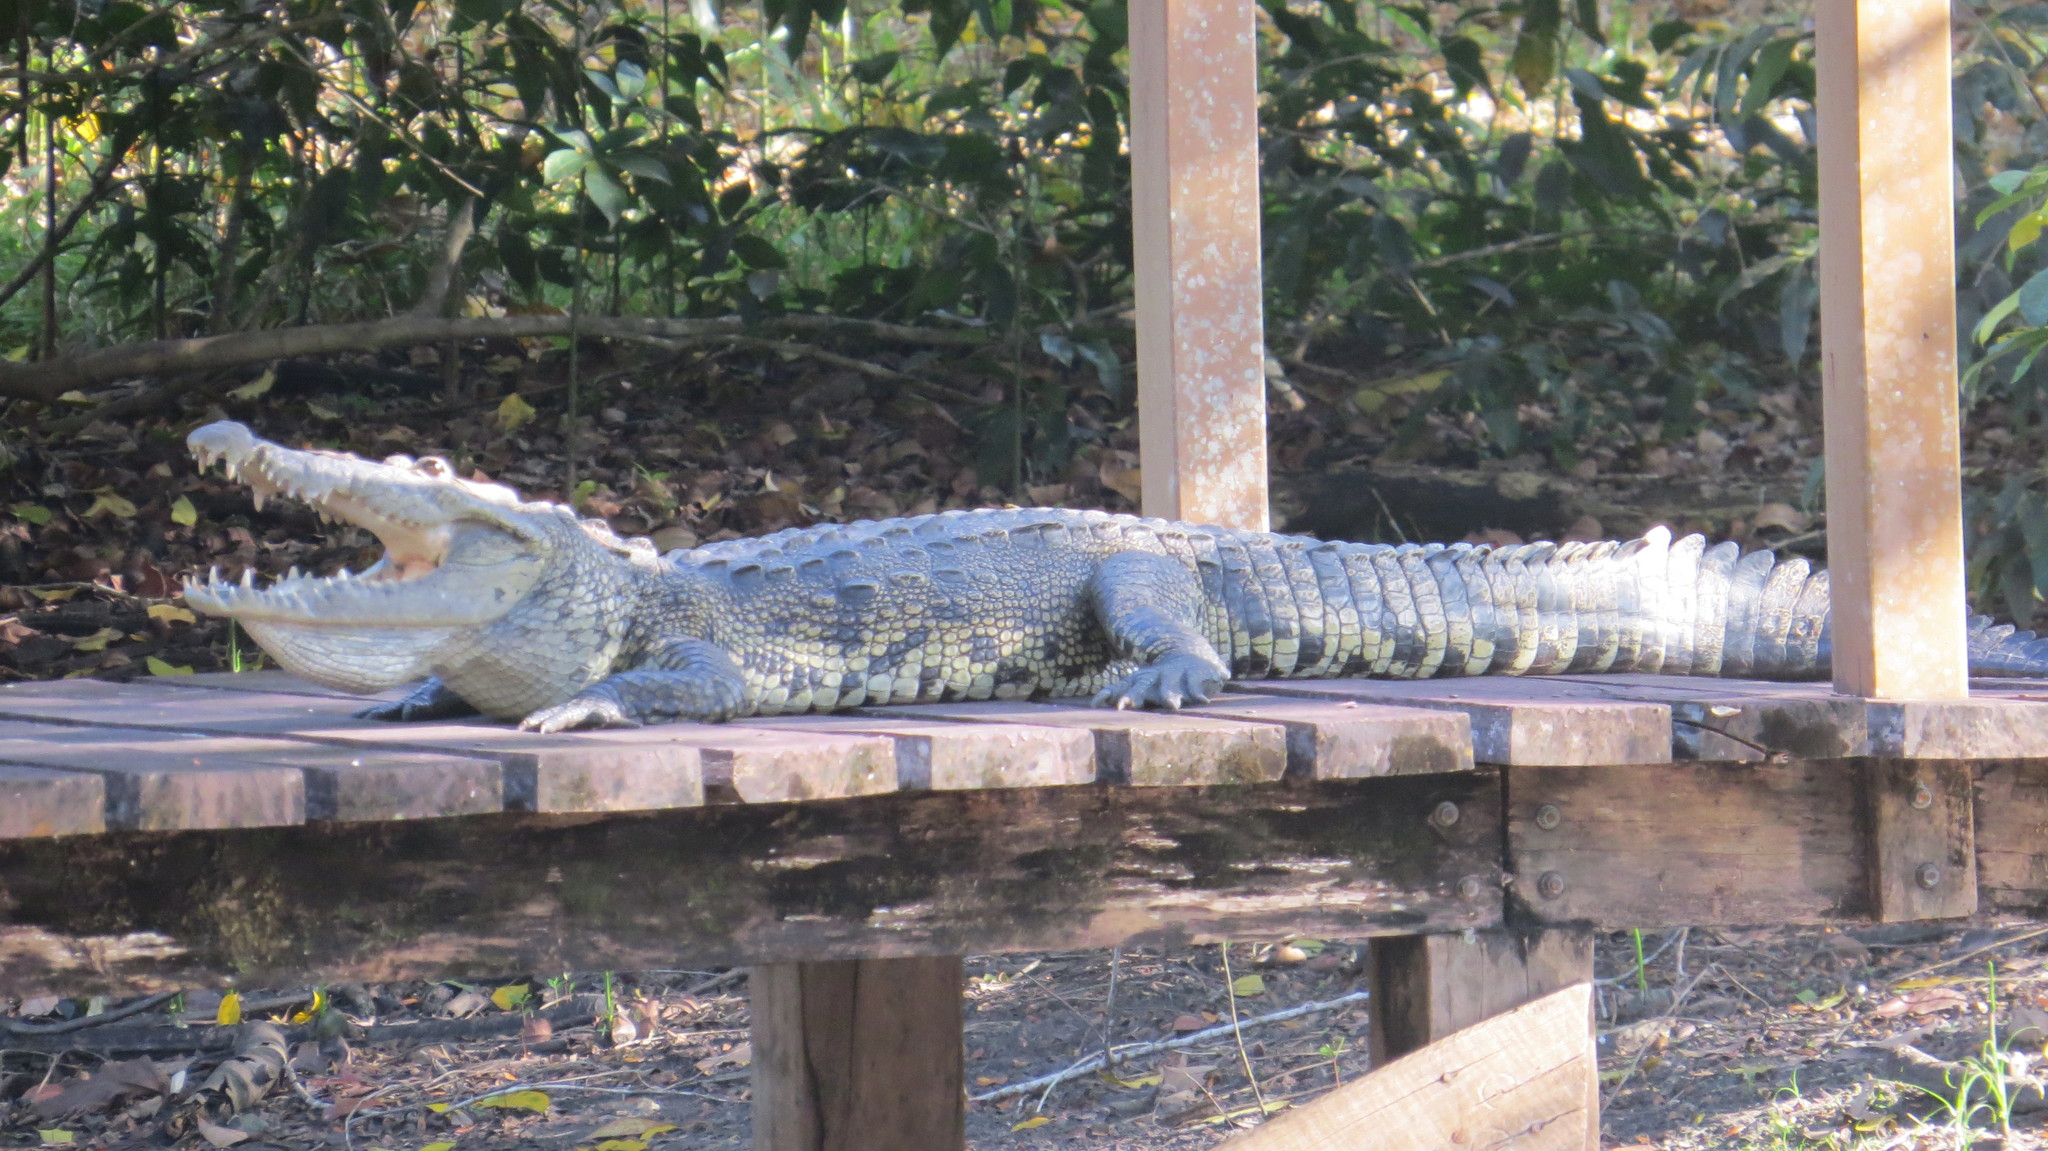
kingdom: Animalia
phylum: Chordata
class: Crocodylia
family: Crocodylidae
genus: Crocodylus
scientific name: Crocodylus moreletii
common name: Morelet's crocodile
